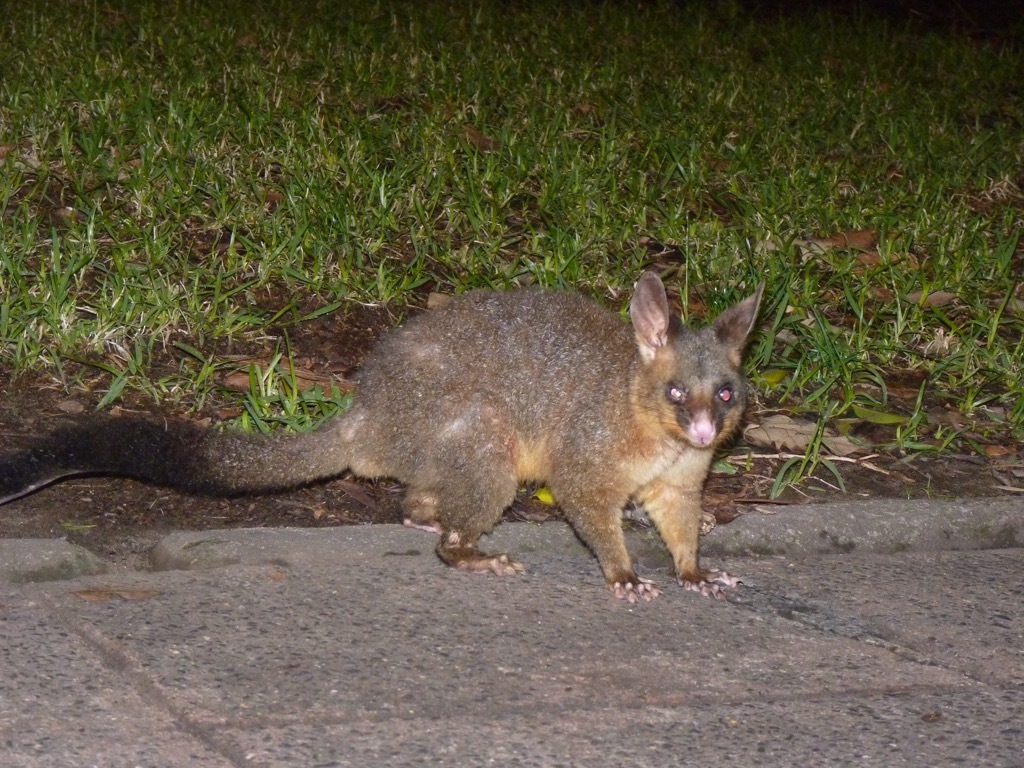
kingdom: Animalia
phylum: Chordata
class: Mammalia
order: Diprotodontia
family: Phalangeridae
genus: Trichosurus
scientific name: Trichosurus vulpecula
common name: Common brushtail
